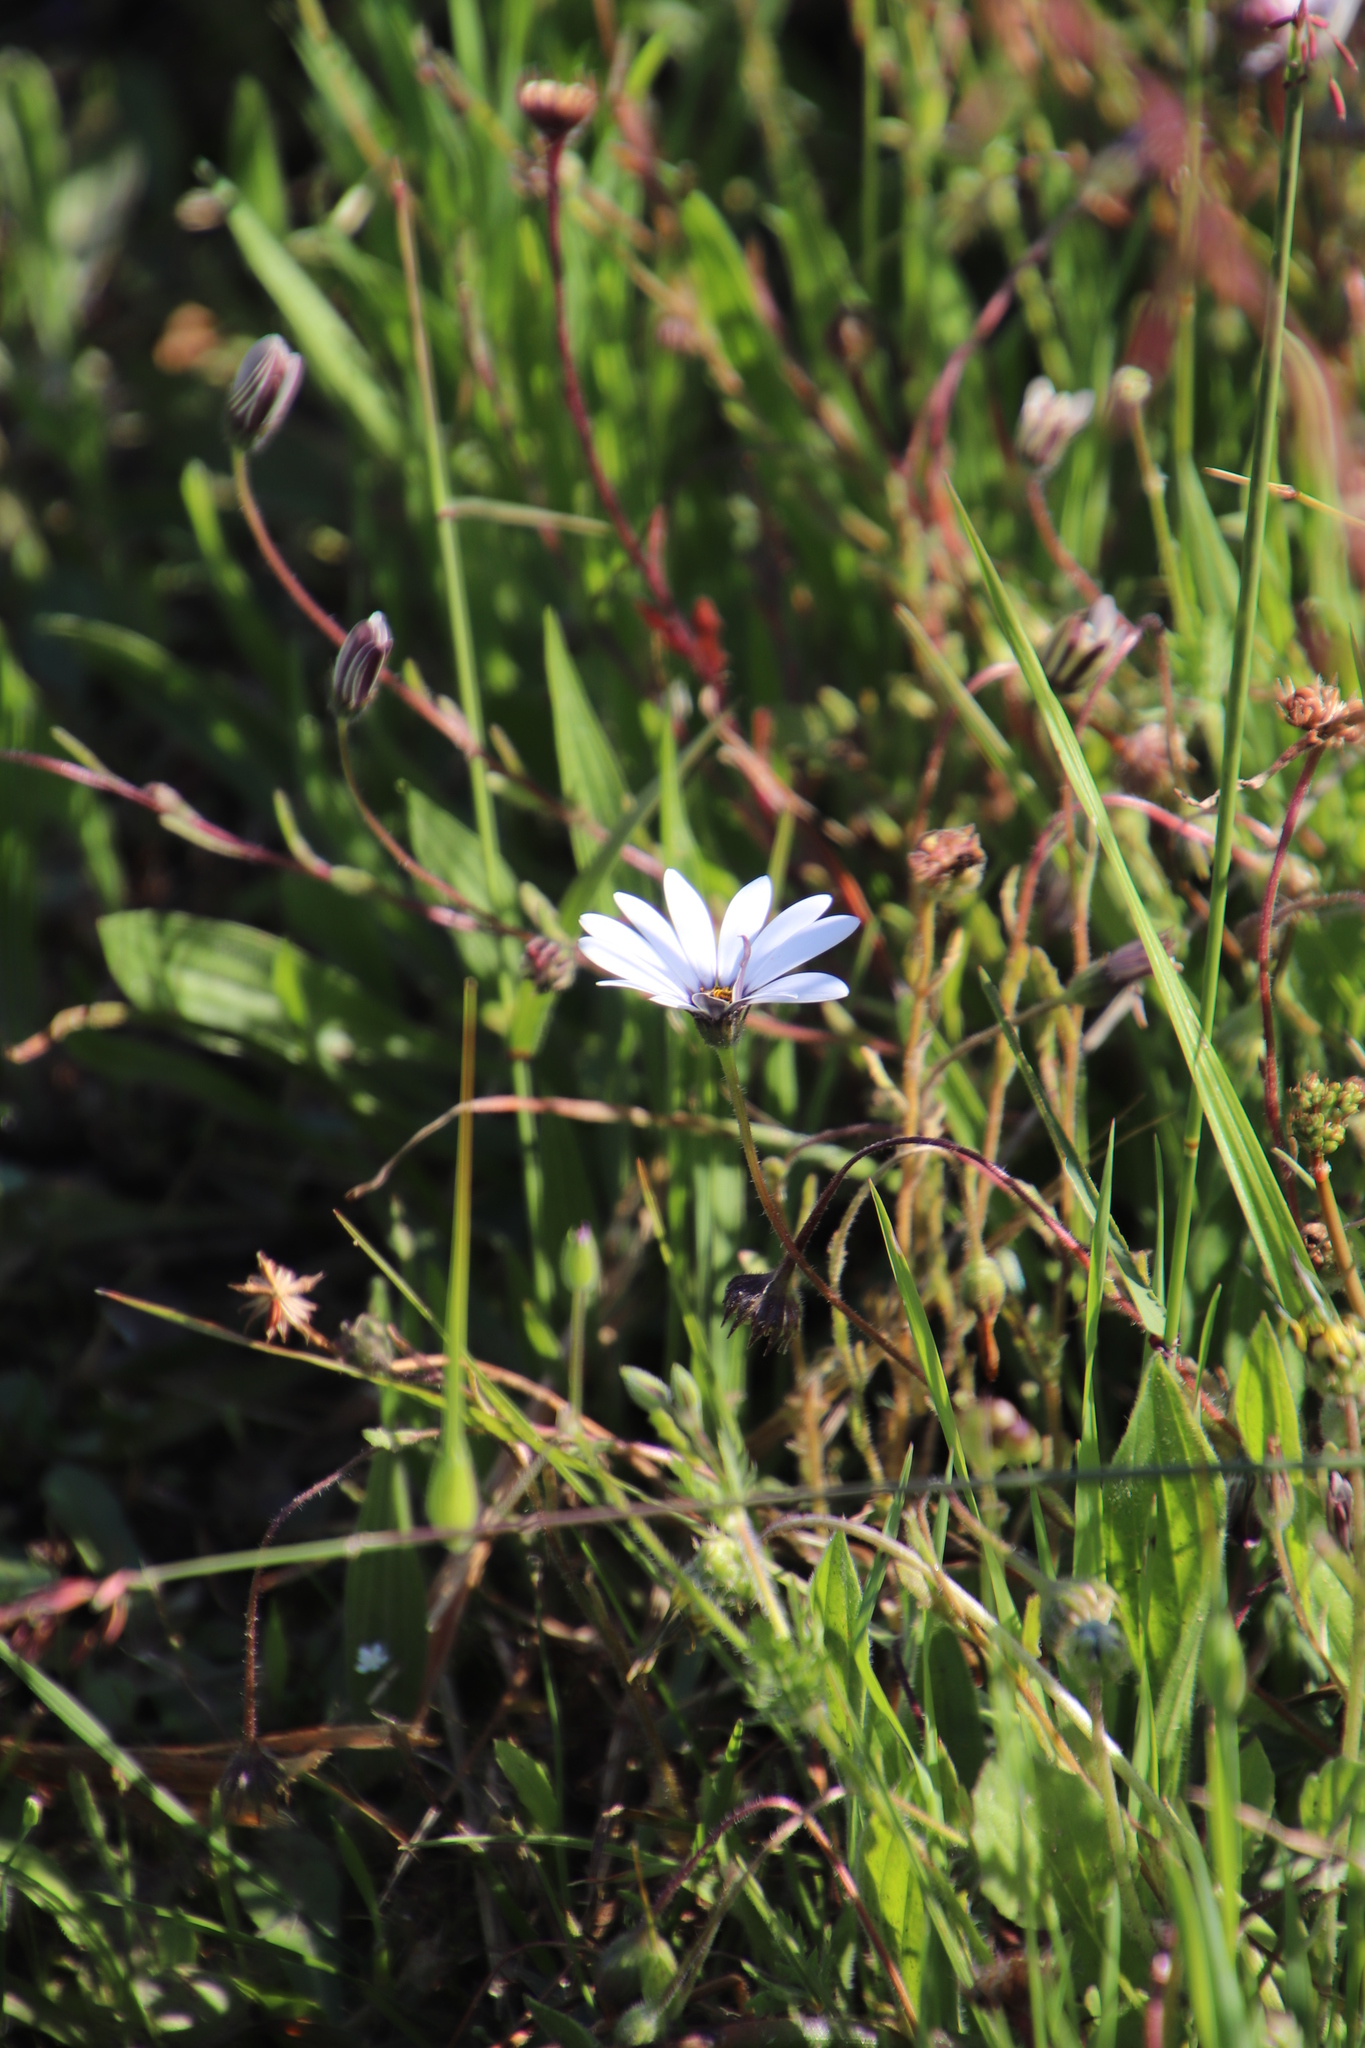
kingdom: Plantae
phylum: Tracheophyta
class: Magnoliopsida
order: Asterales
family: Asteraceae
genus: Dimorphotheca
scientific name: Dimorphotheca pluvialis
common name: Weather prophet
